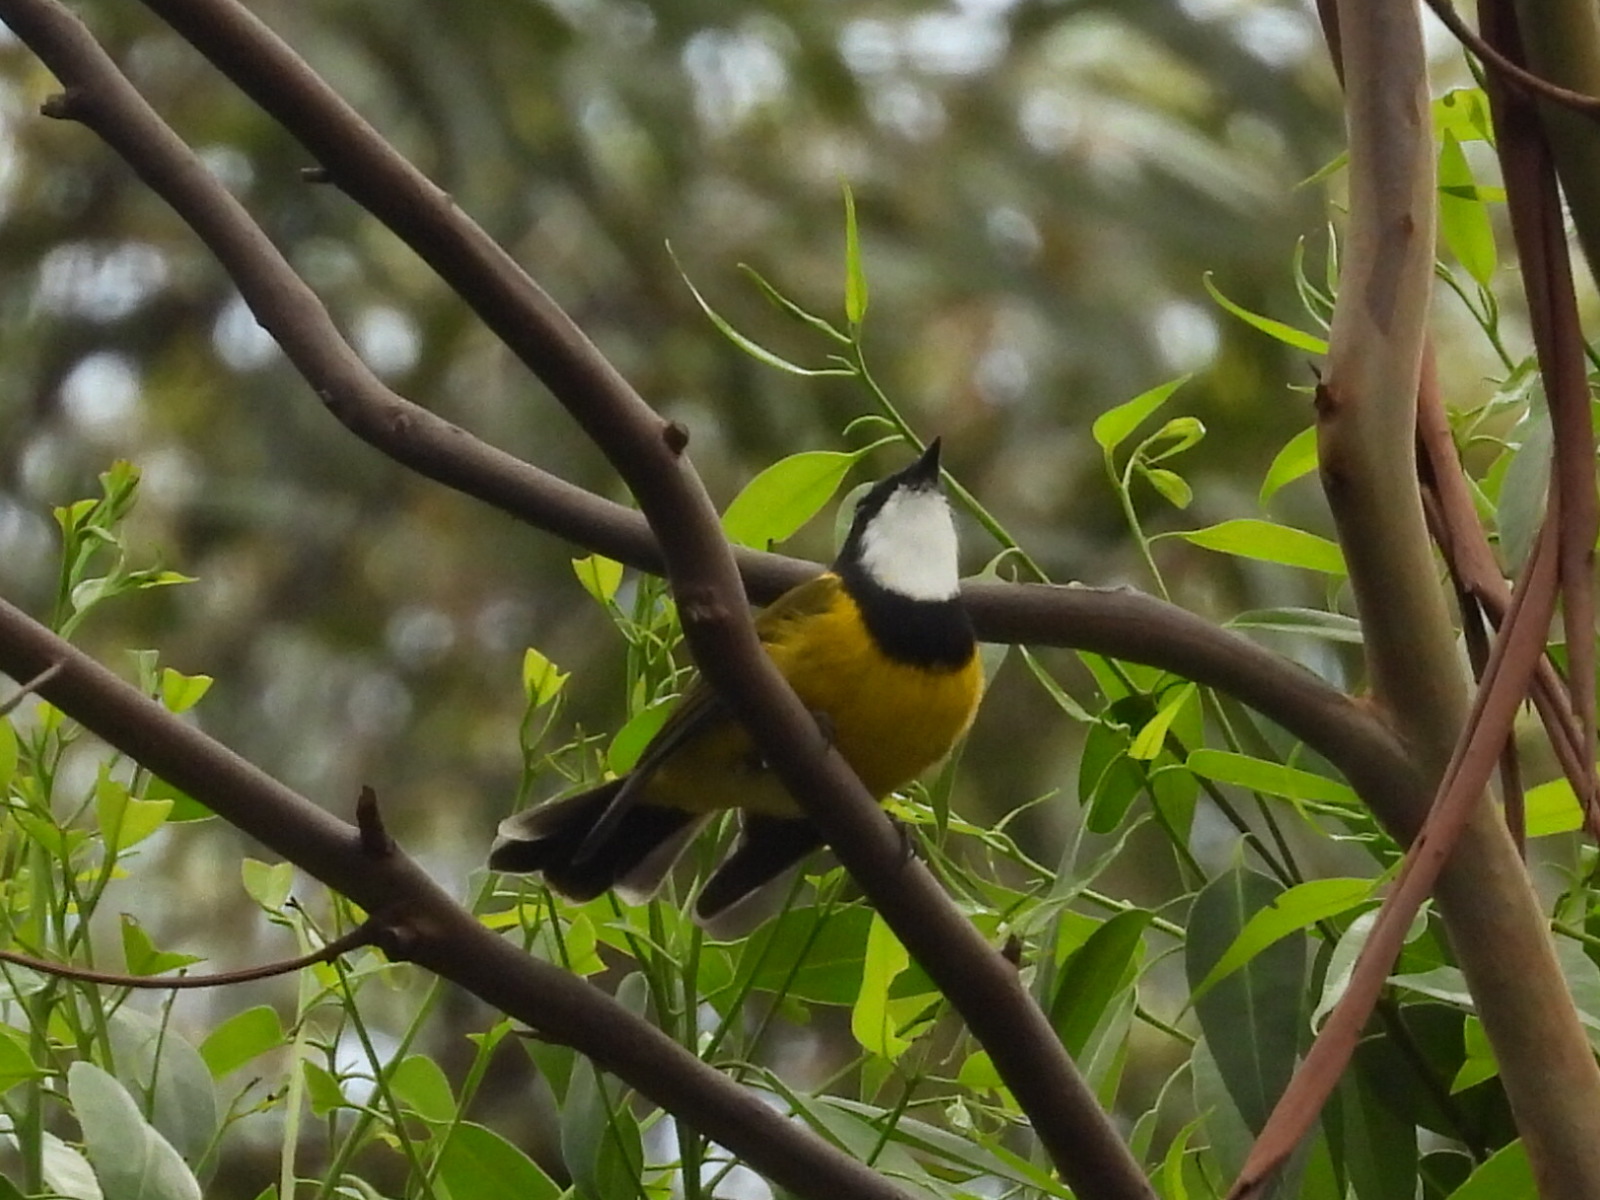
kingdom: Animalia
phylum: Chordata
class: Aves
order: Passeriformes
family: Pachycephalidae
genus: Pachycephala
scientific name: Pachycephala pectoralis
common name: Australian golden whistler
